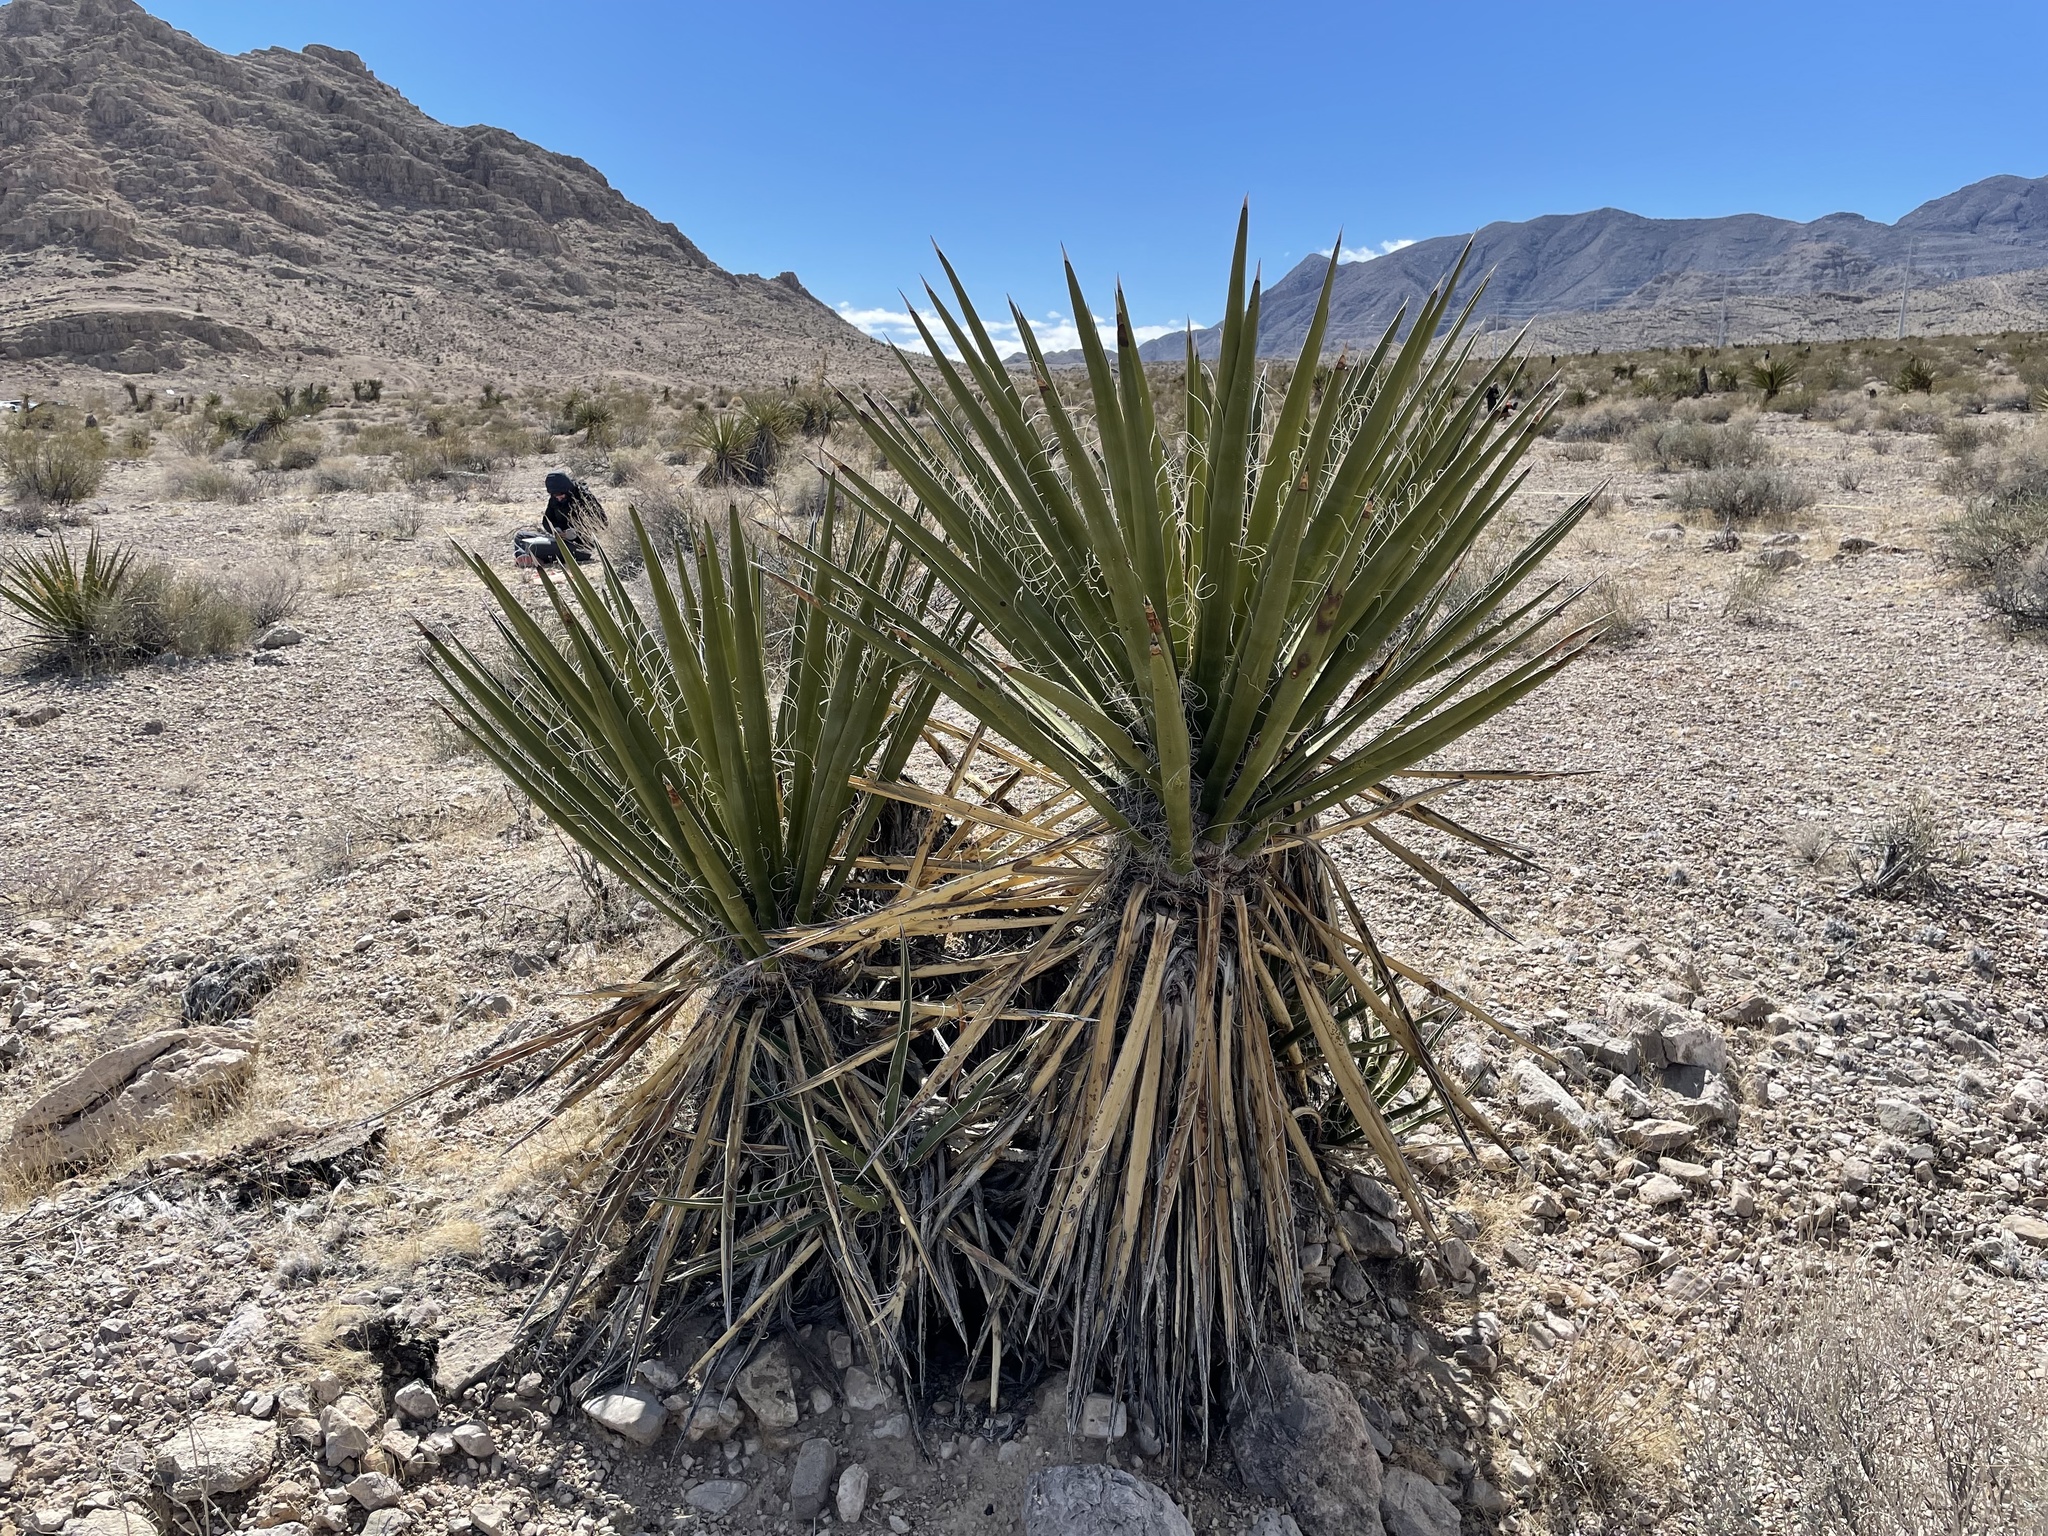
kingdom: Plantae
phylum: Tracheophyta
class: Liliopsida
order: Asparagales
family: Asparagaceae
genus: Yucca
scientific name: Yucca schidigera
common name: Mojave yucca
